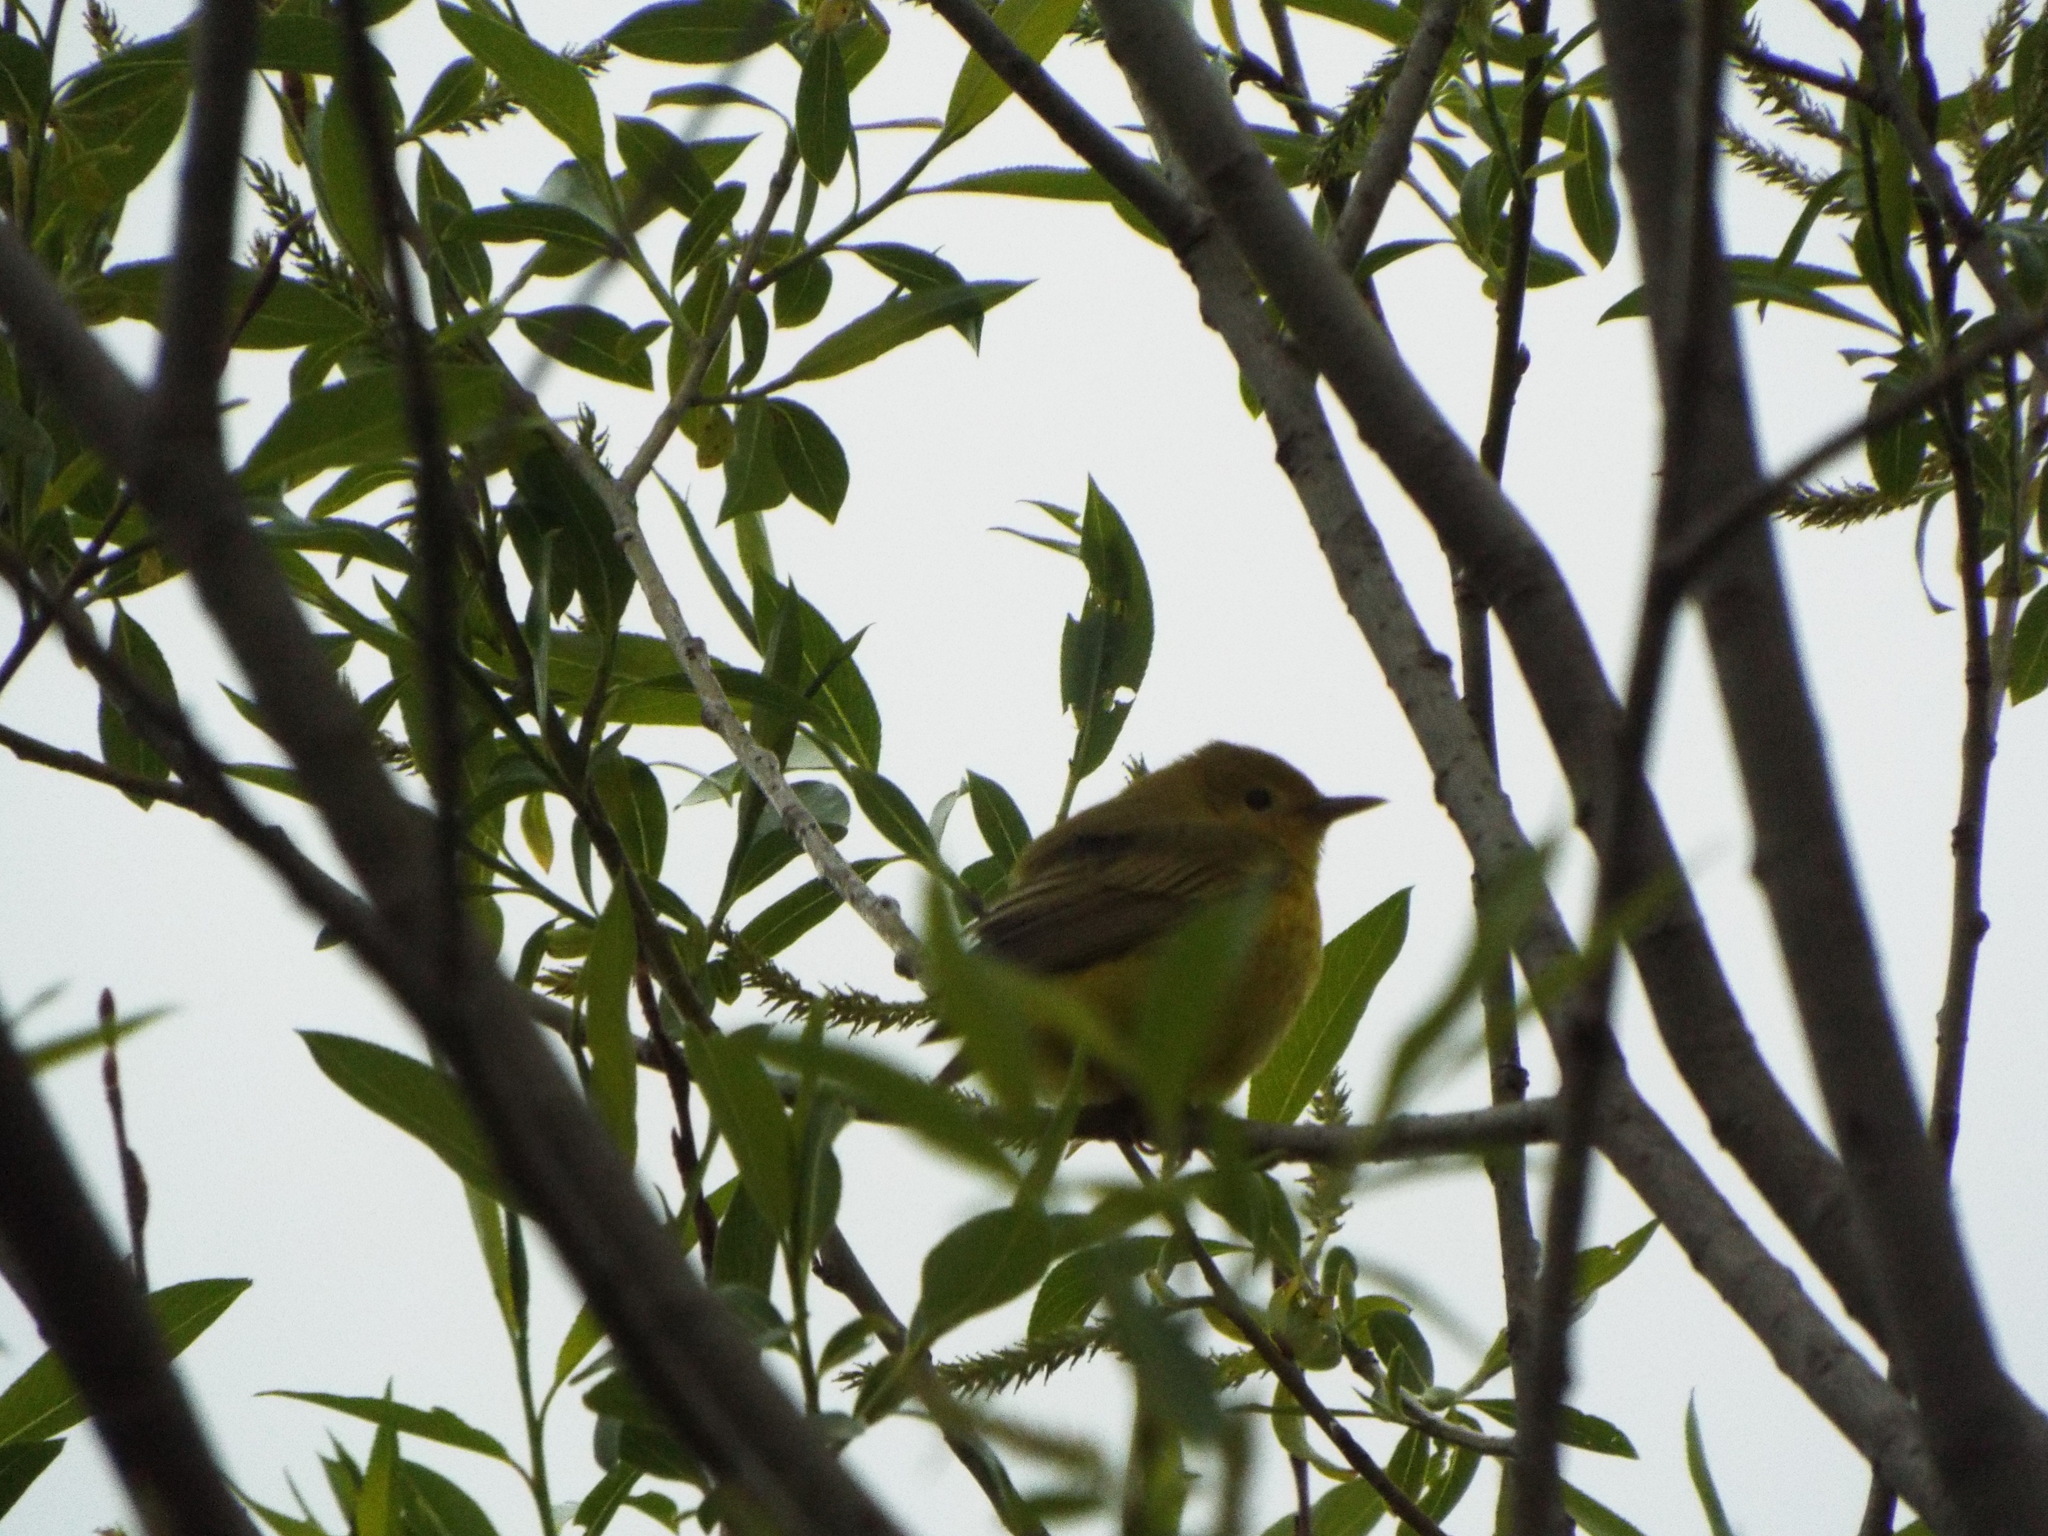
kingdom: Animalia
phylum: Chordata
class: Aves
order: Passeriformes
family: Parulidae
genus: Setophaga
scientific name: Setophaga petechia
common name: Yellow warbler
